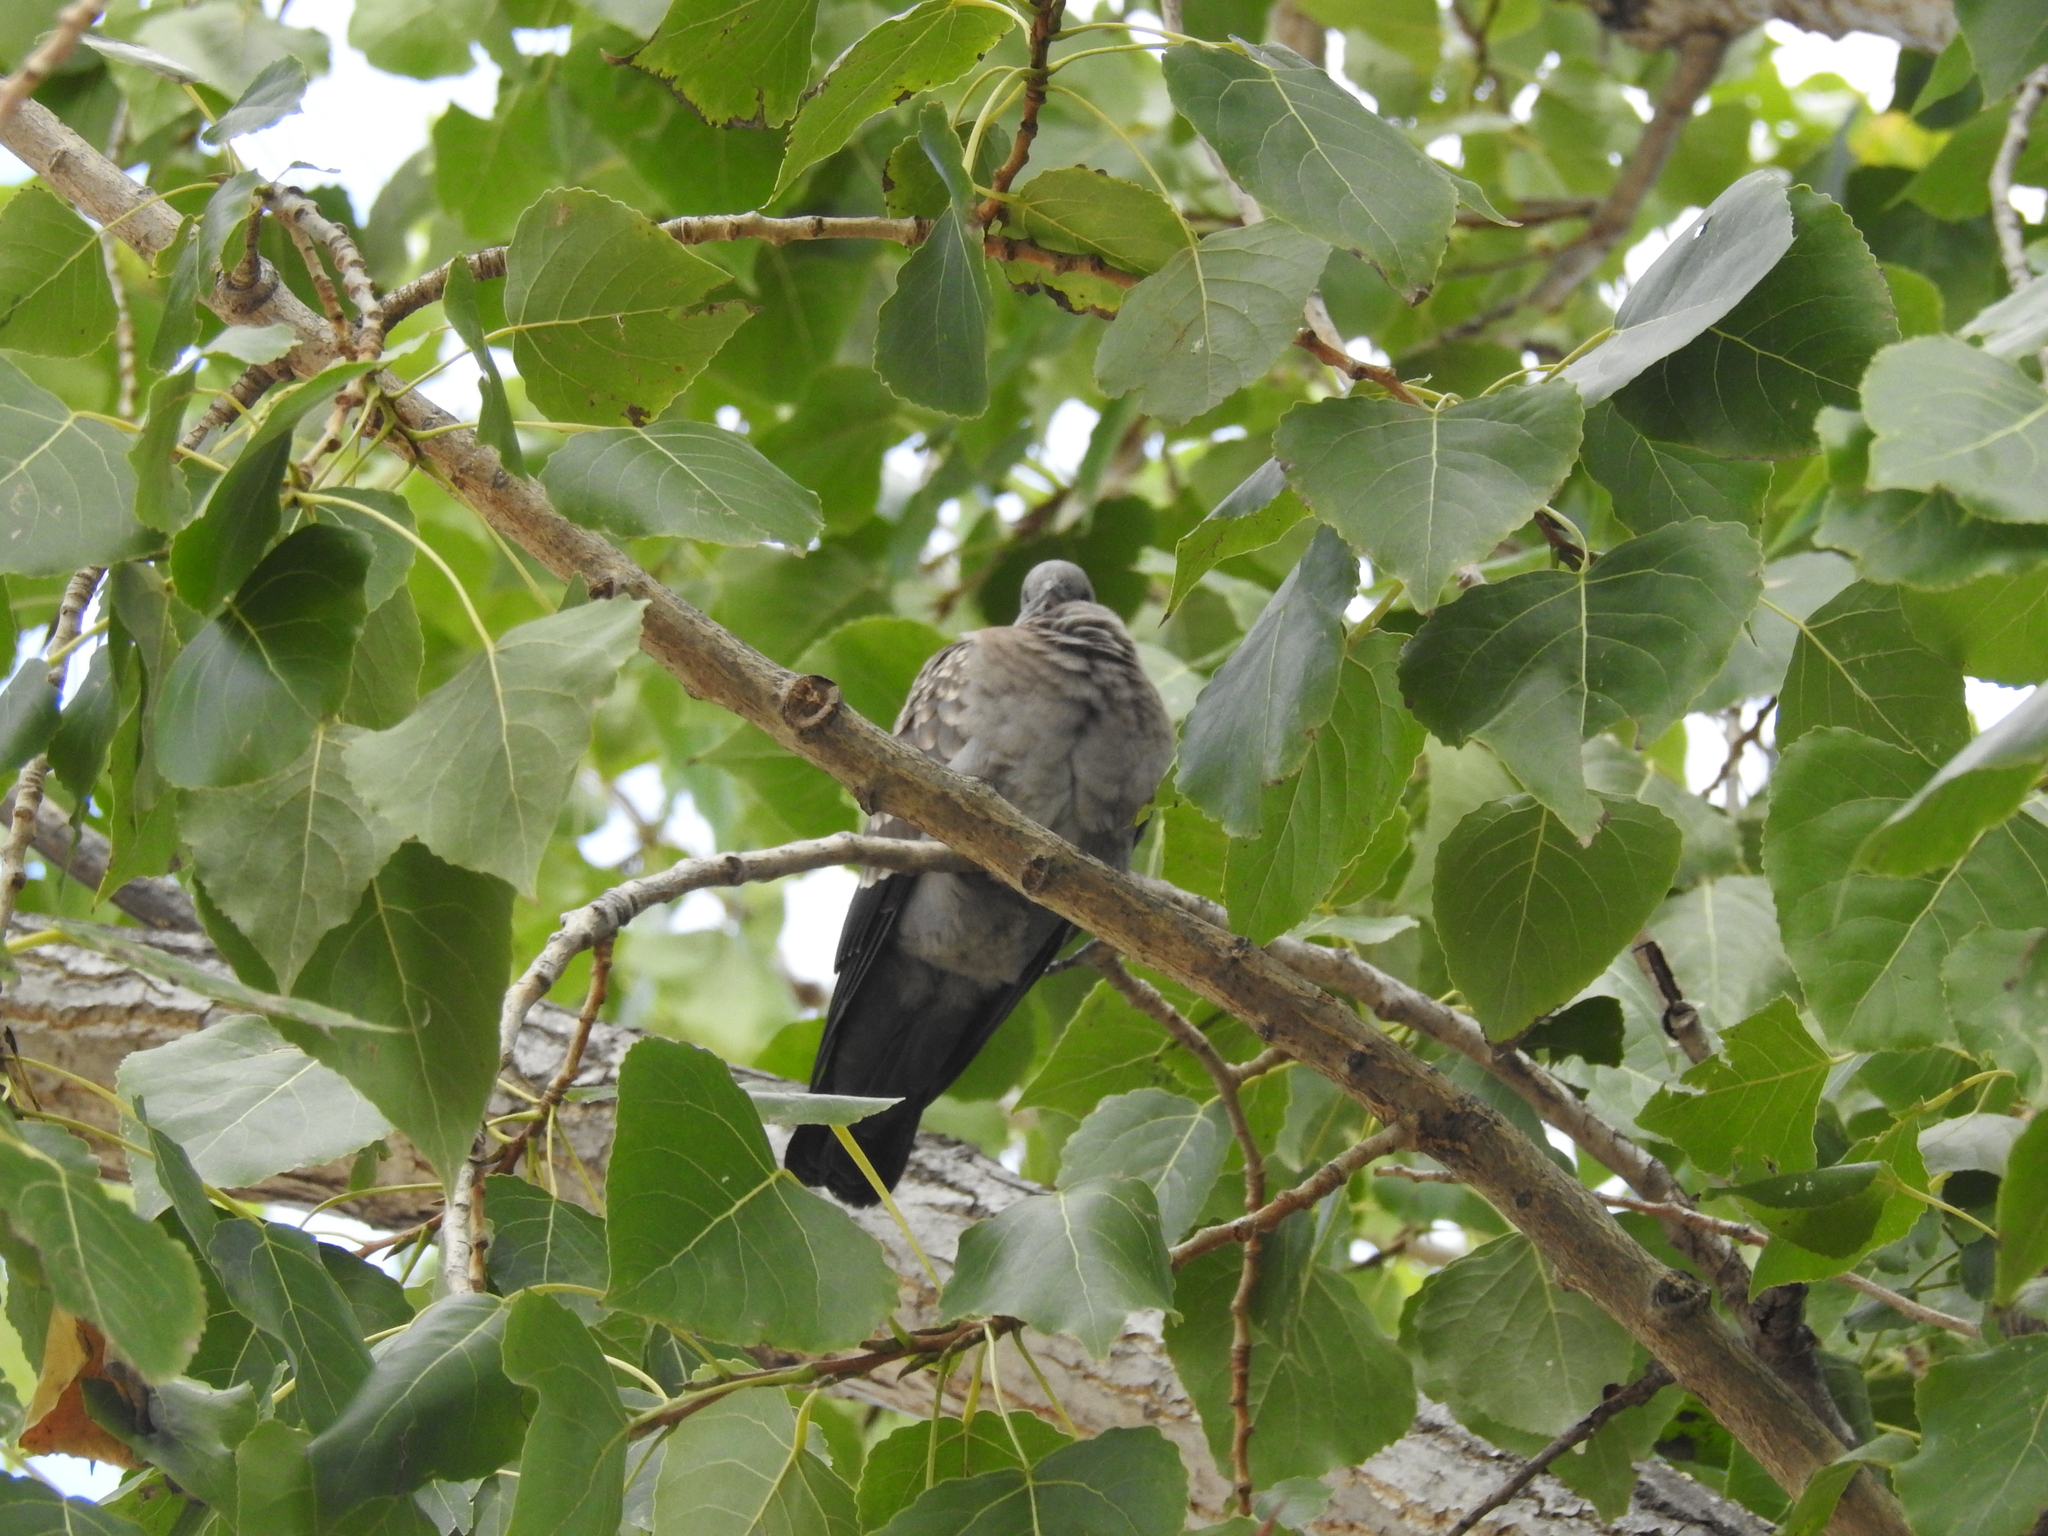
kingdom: Animalia
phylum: Chordata
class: Aves
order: Columbiformes
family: Columbidae
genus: Patagioenas
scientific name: Patagioenas maculosa
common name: Spot-winged pigeon
